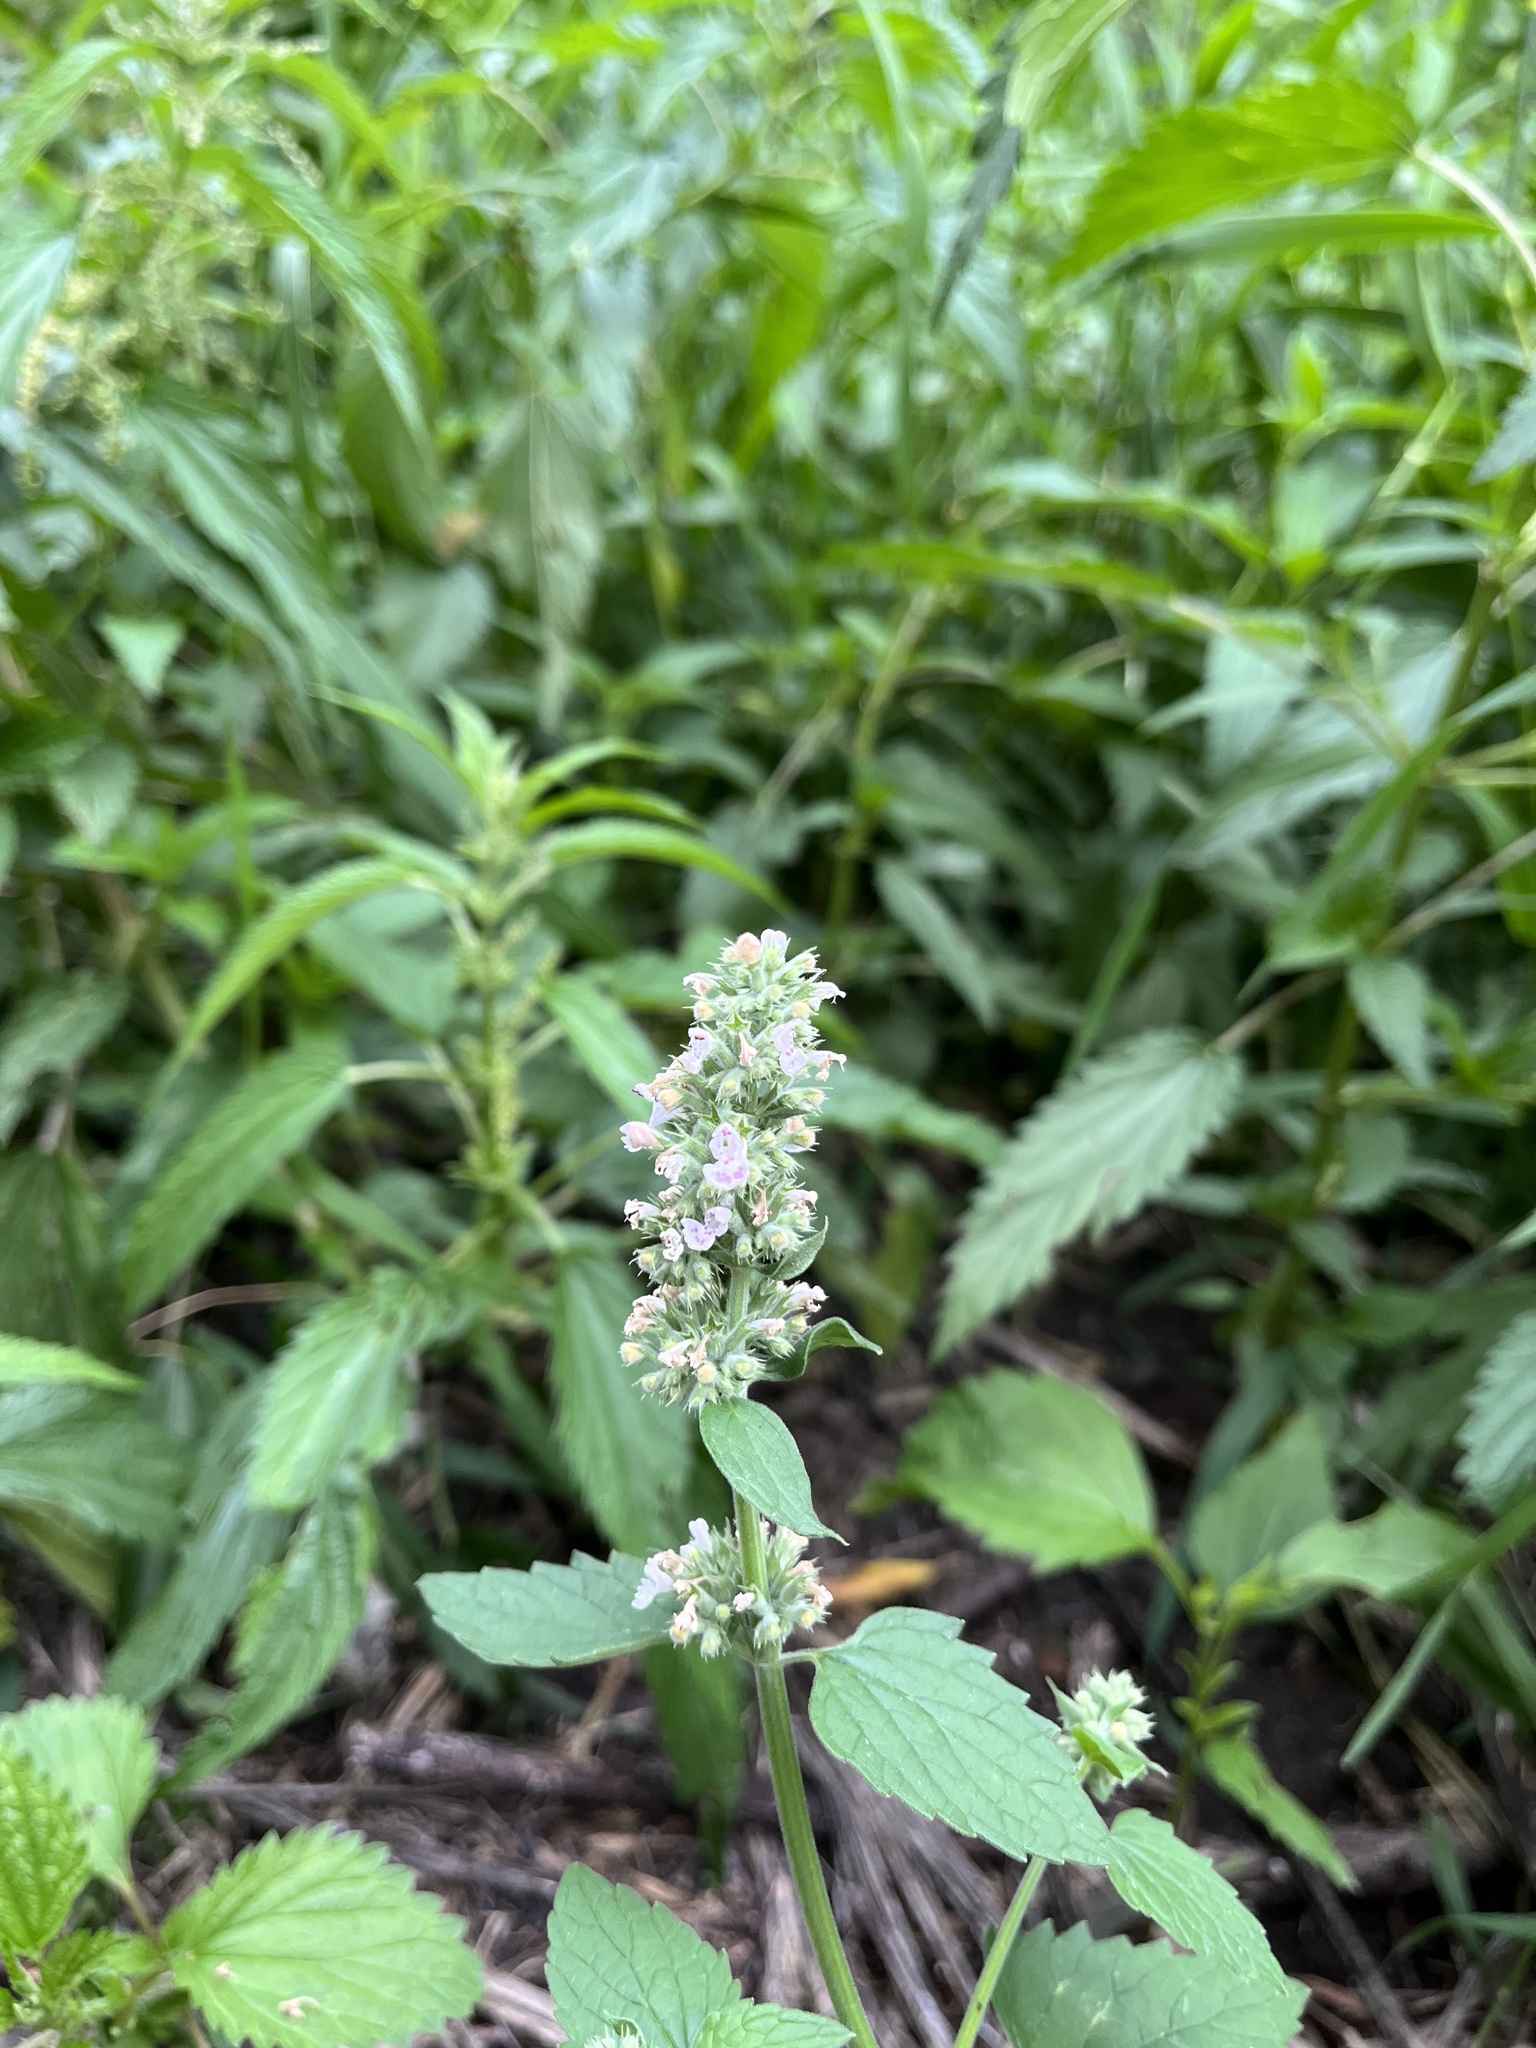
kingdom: Plantae
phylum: Tracheophyta
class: Magnoliopsida
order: Lamiales
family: Lamiaceae
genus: Nepeta
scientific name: Nepeta cataria
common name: Catnip
